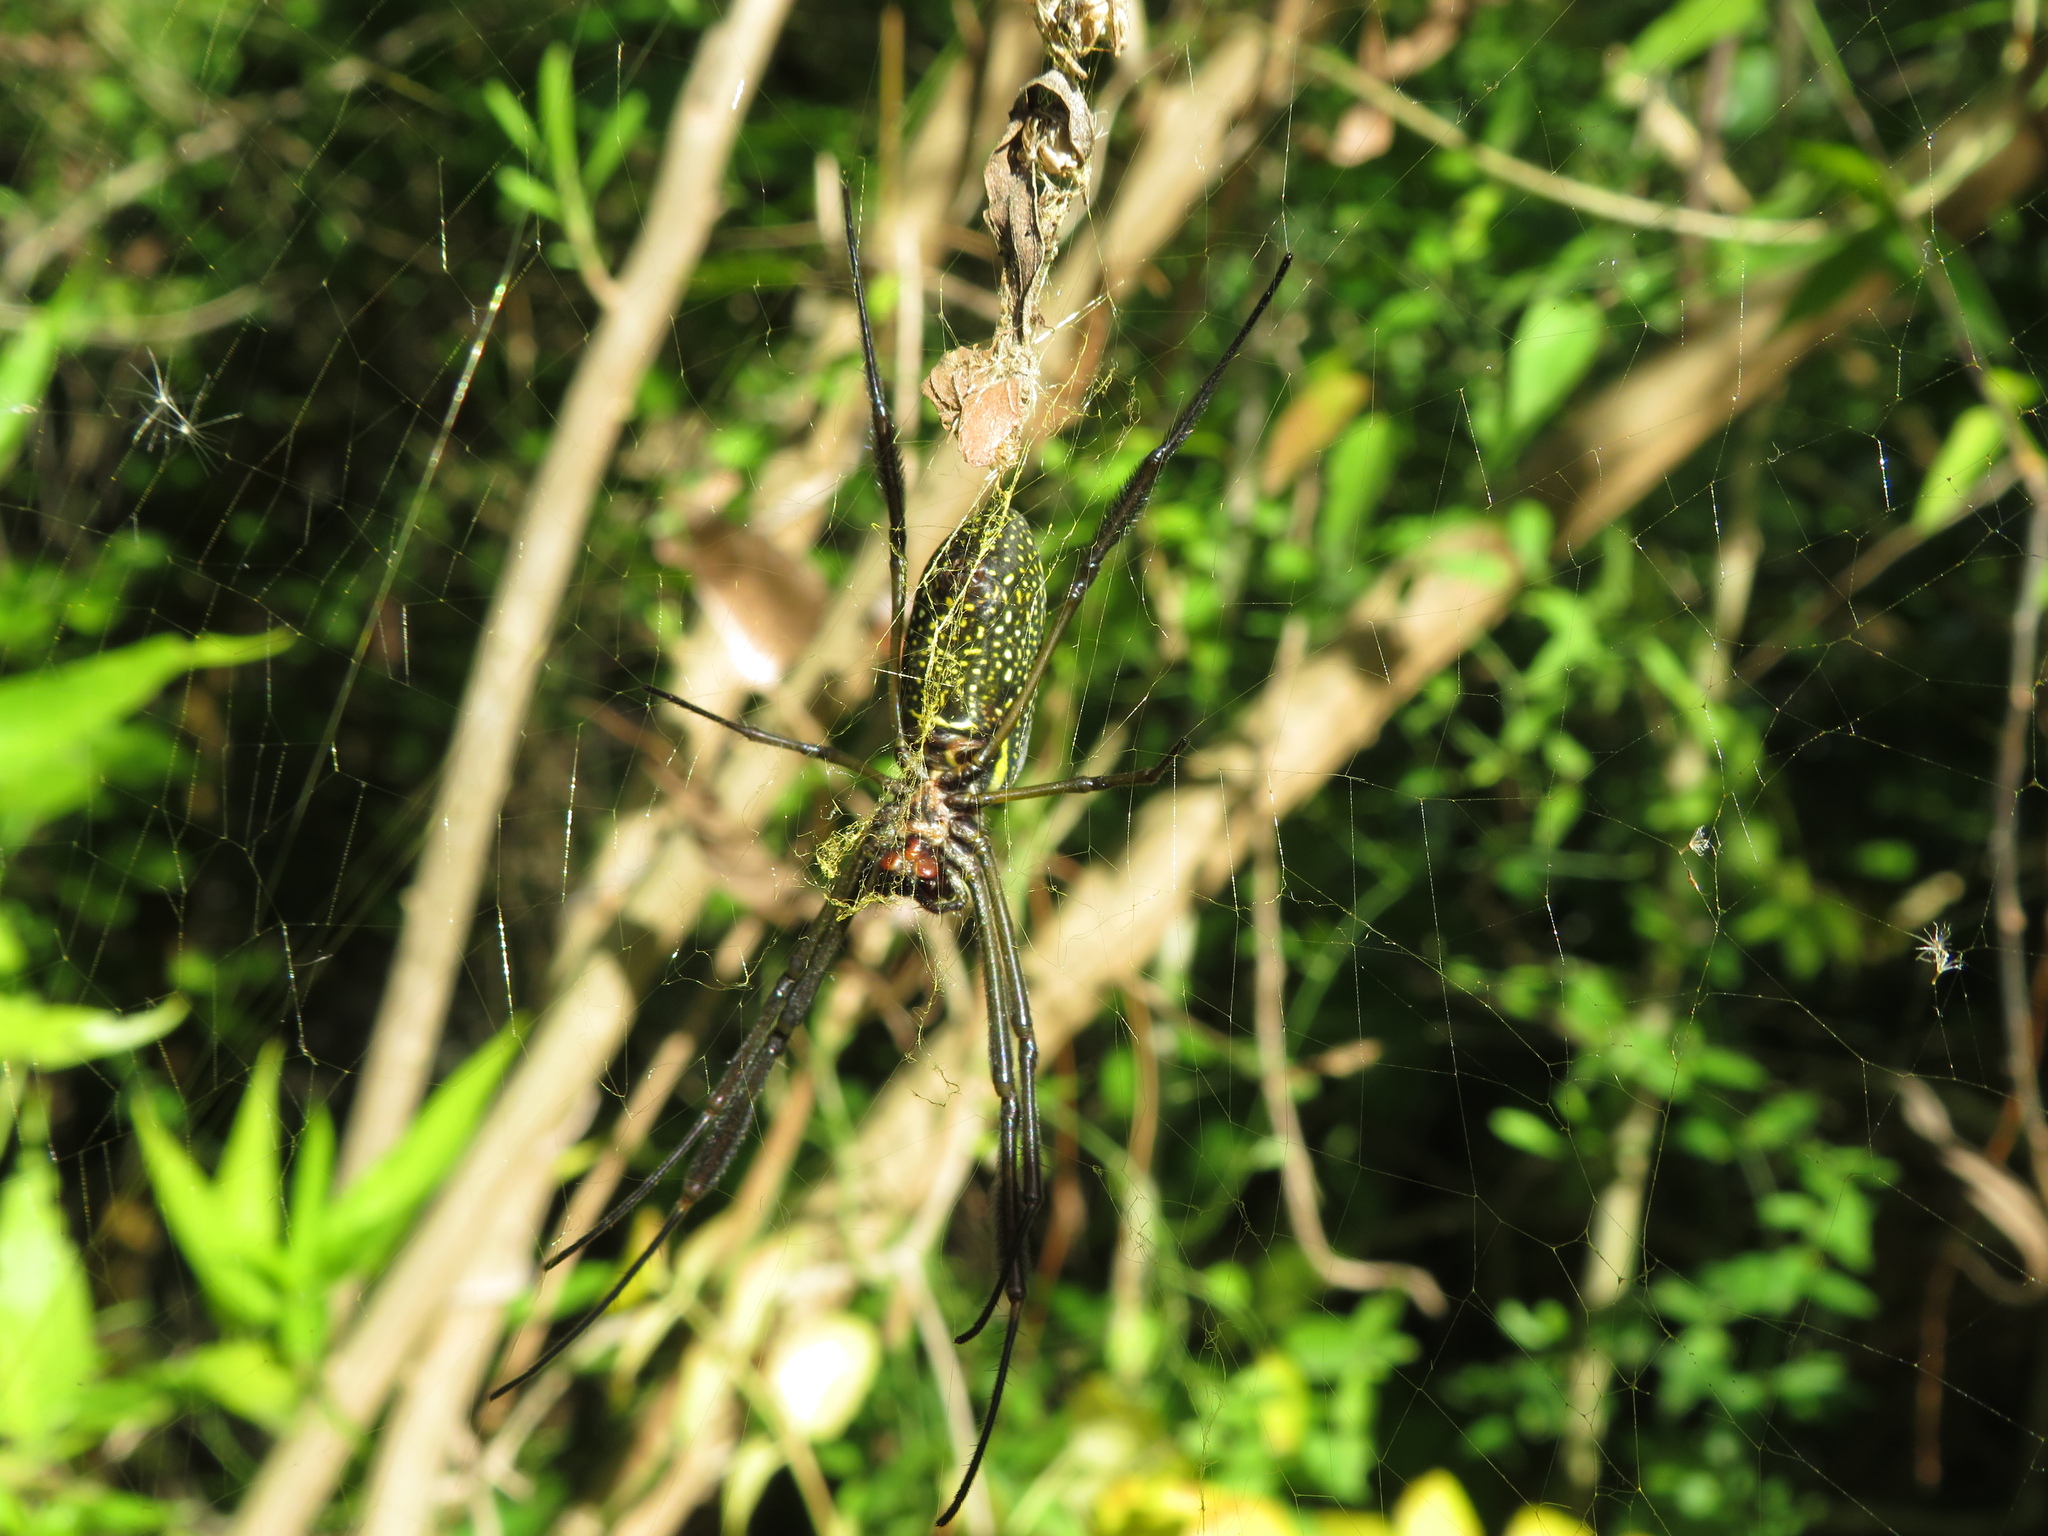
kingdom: Animalia
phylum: Arthropoda
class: Arachnida
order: Araneae
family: Araneidae
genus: Trichonephila
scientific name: Trichonephila clavipes
